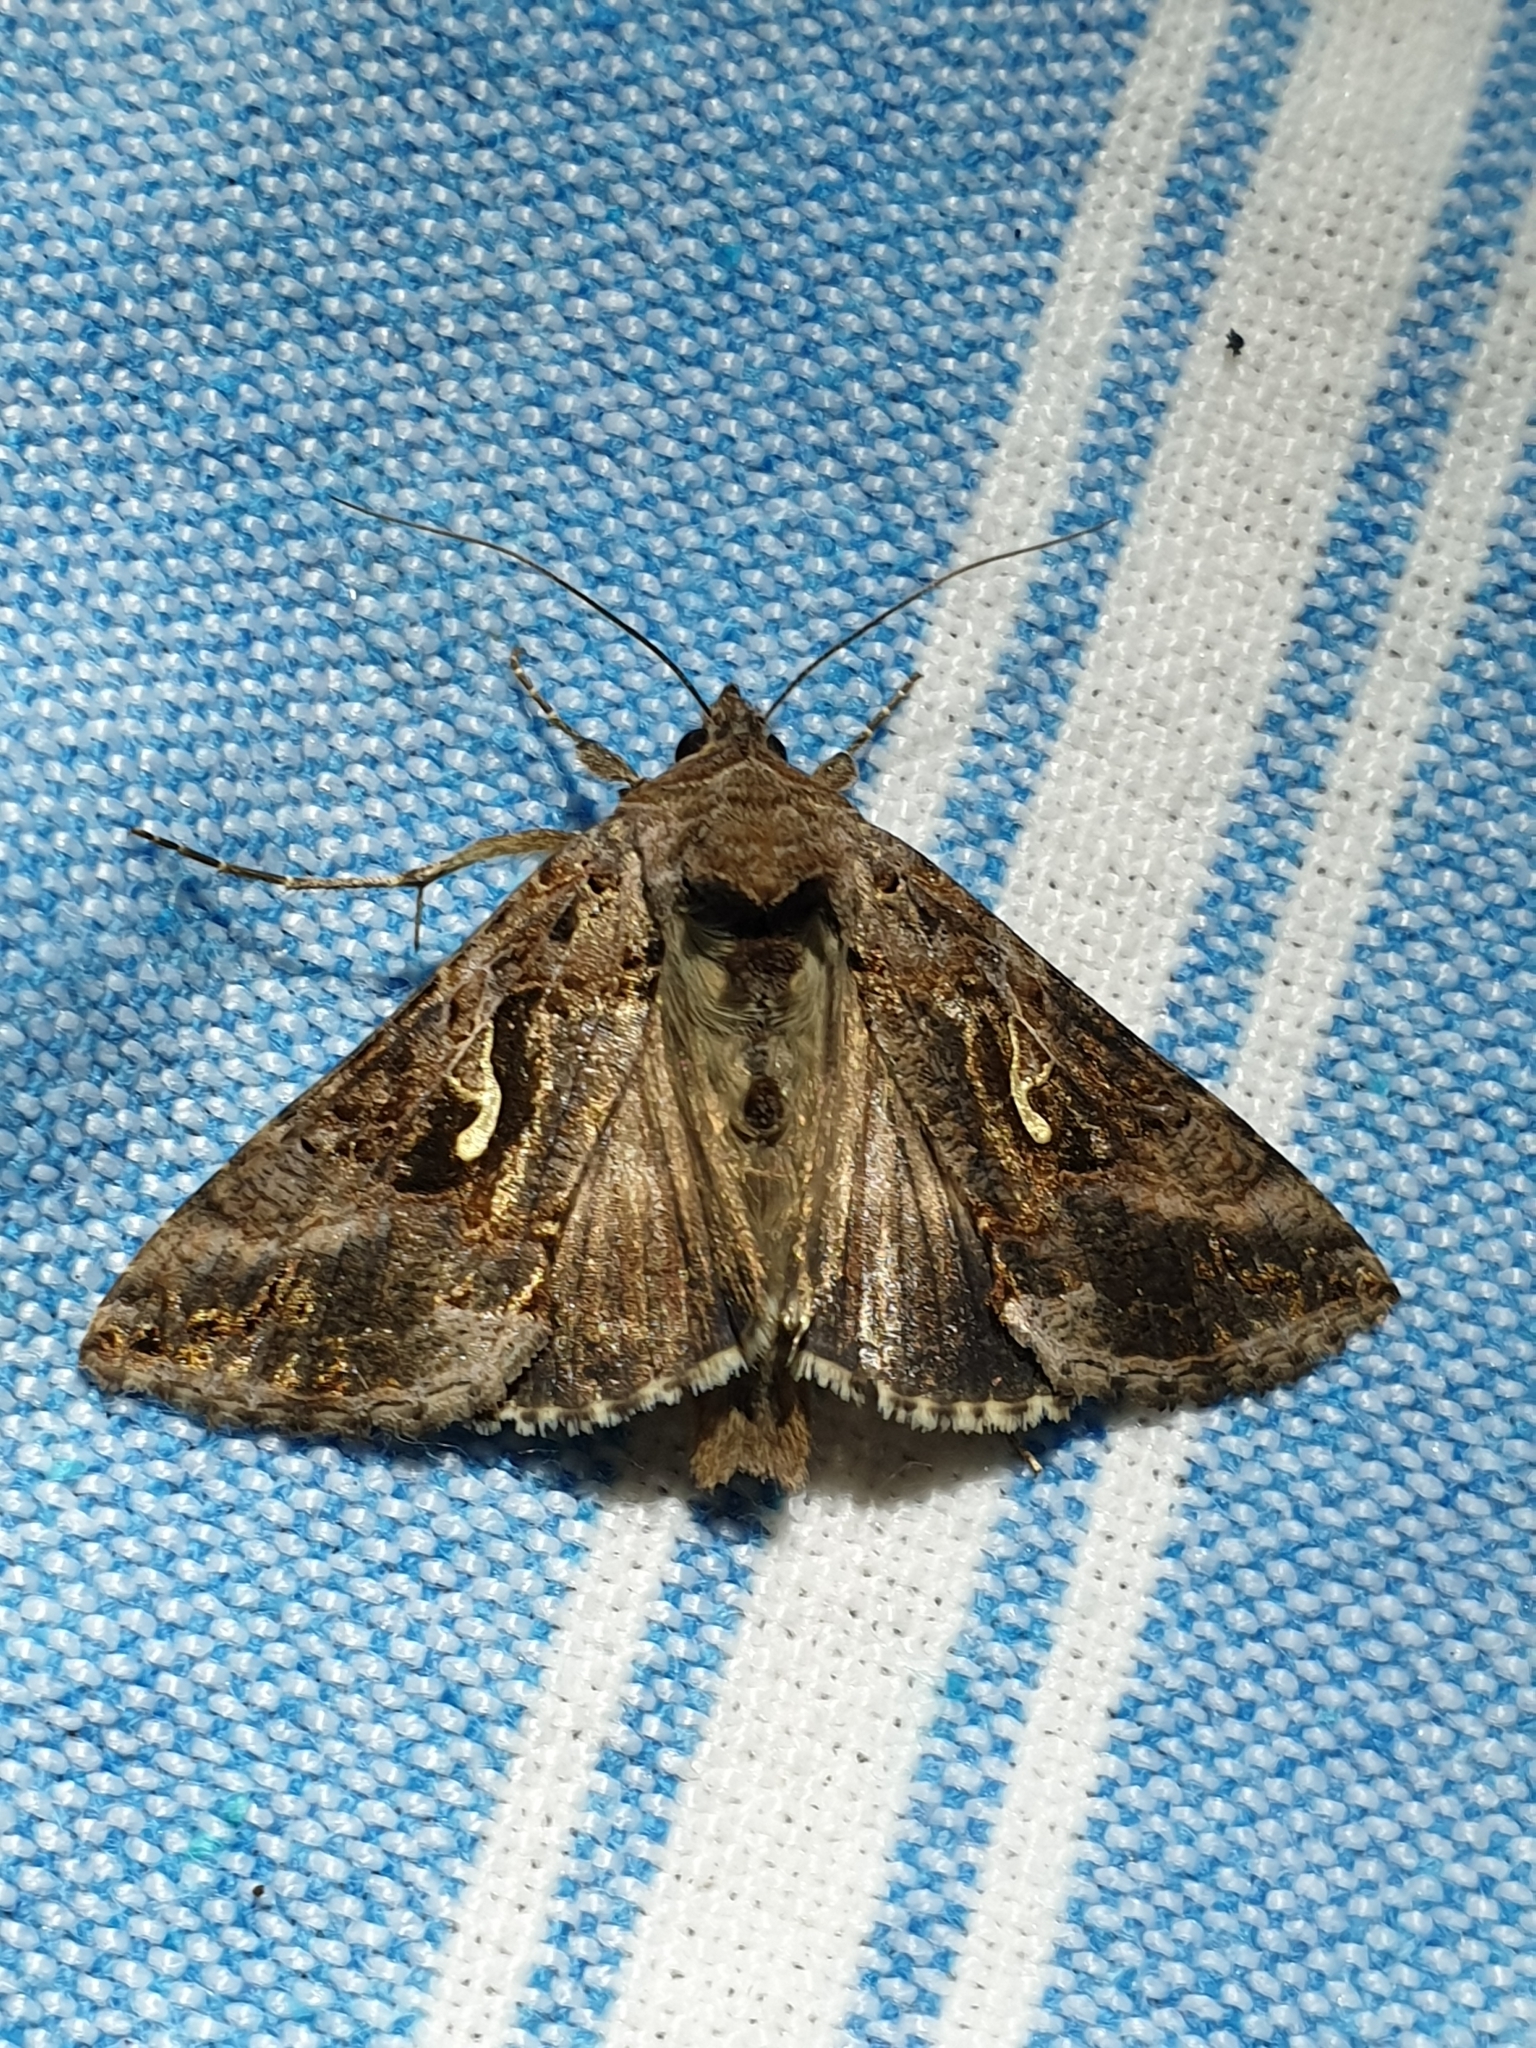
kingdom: Animalia
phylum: Arthropoda
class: Insecta
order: Lepidoptera
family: Noctuidae
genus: Autographa
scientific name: Autographa gamma
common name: Silver y
